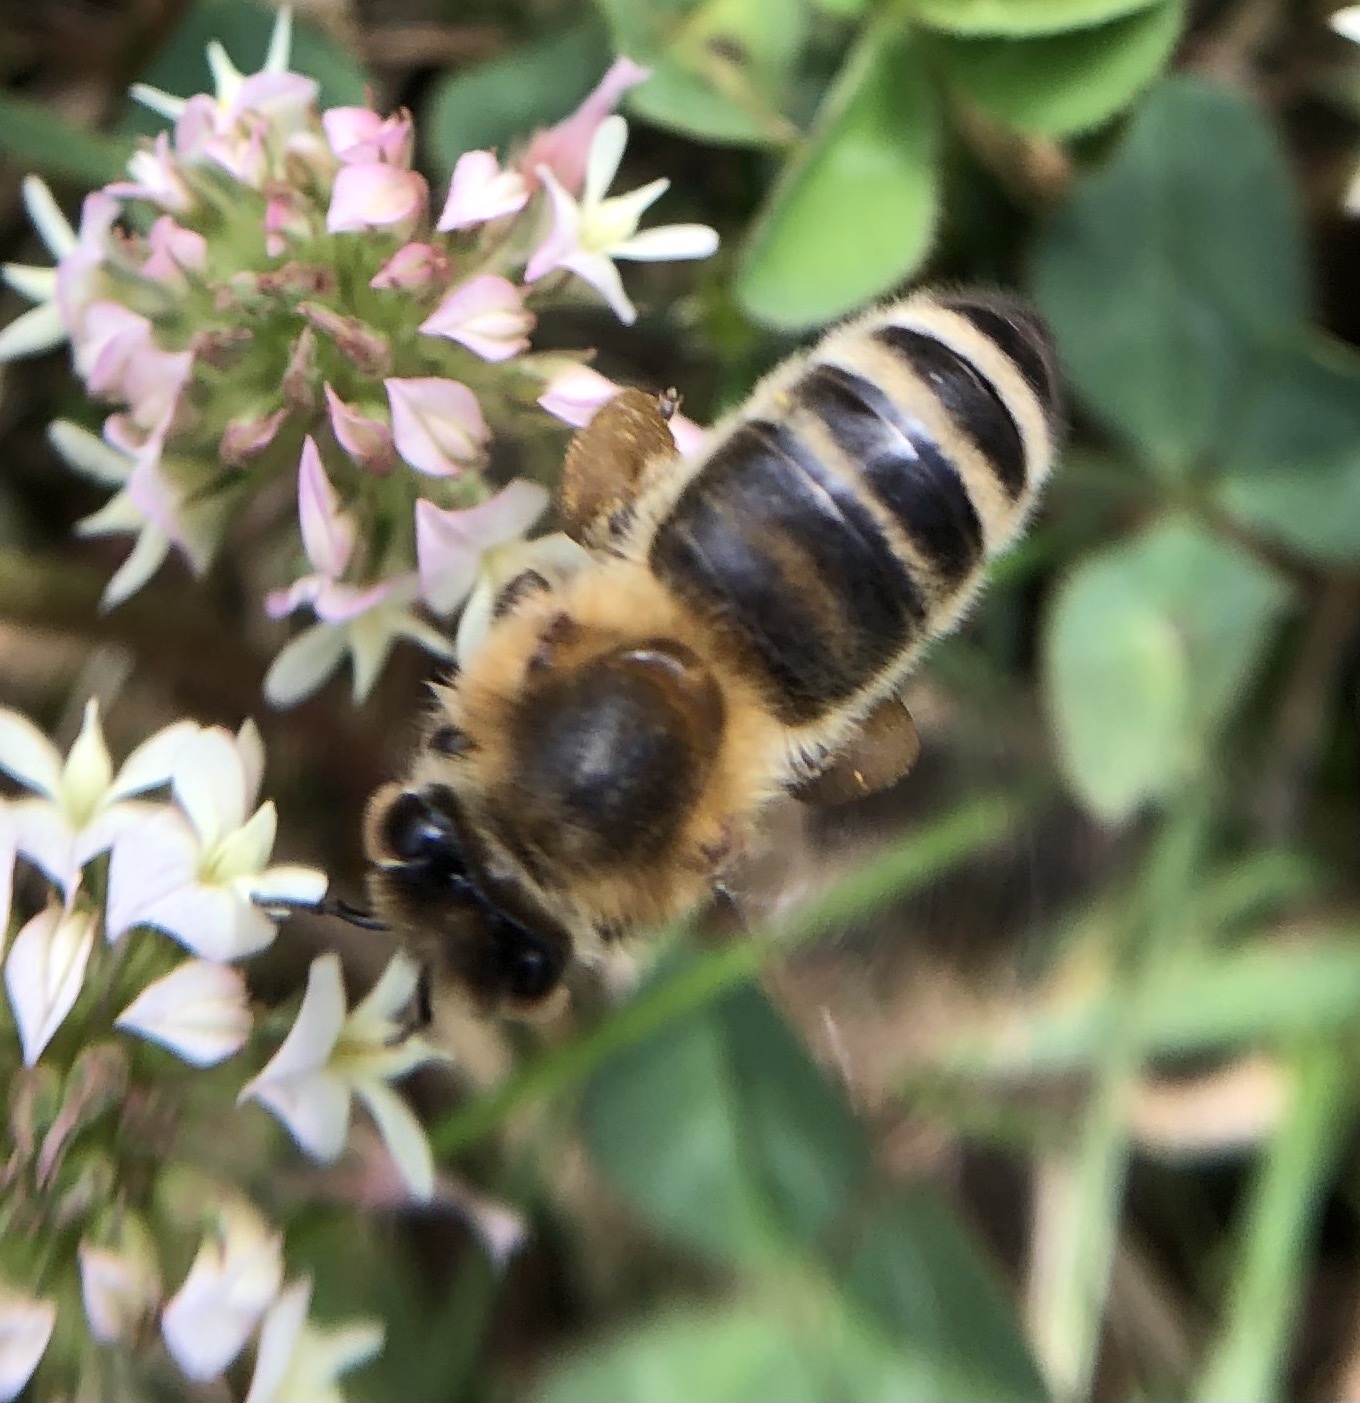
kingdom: Animalia
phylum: Arthropoda
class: Insecta
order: Hymenoptera
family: Apidae
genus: Apis
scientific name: Apis mellifera
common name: Honey bee
